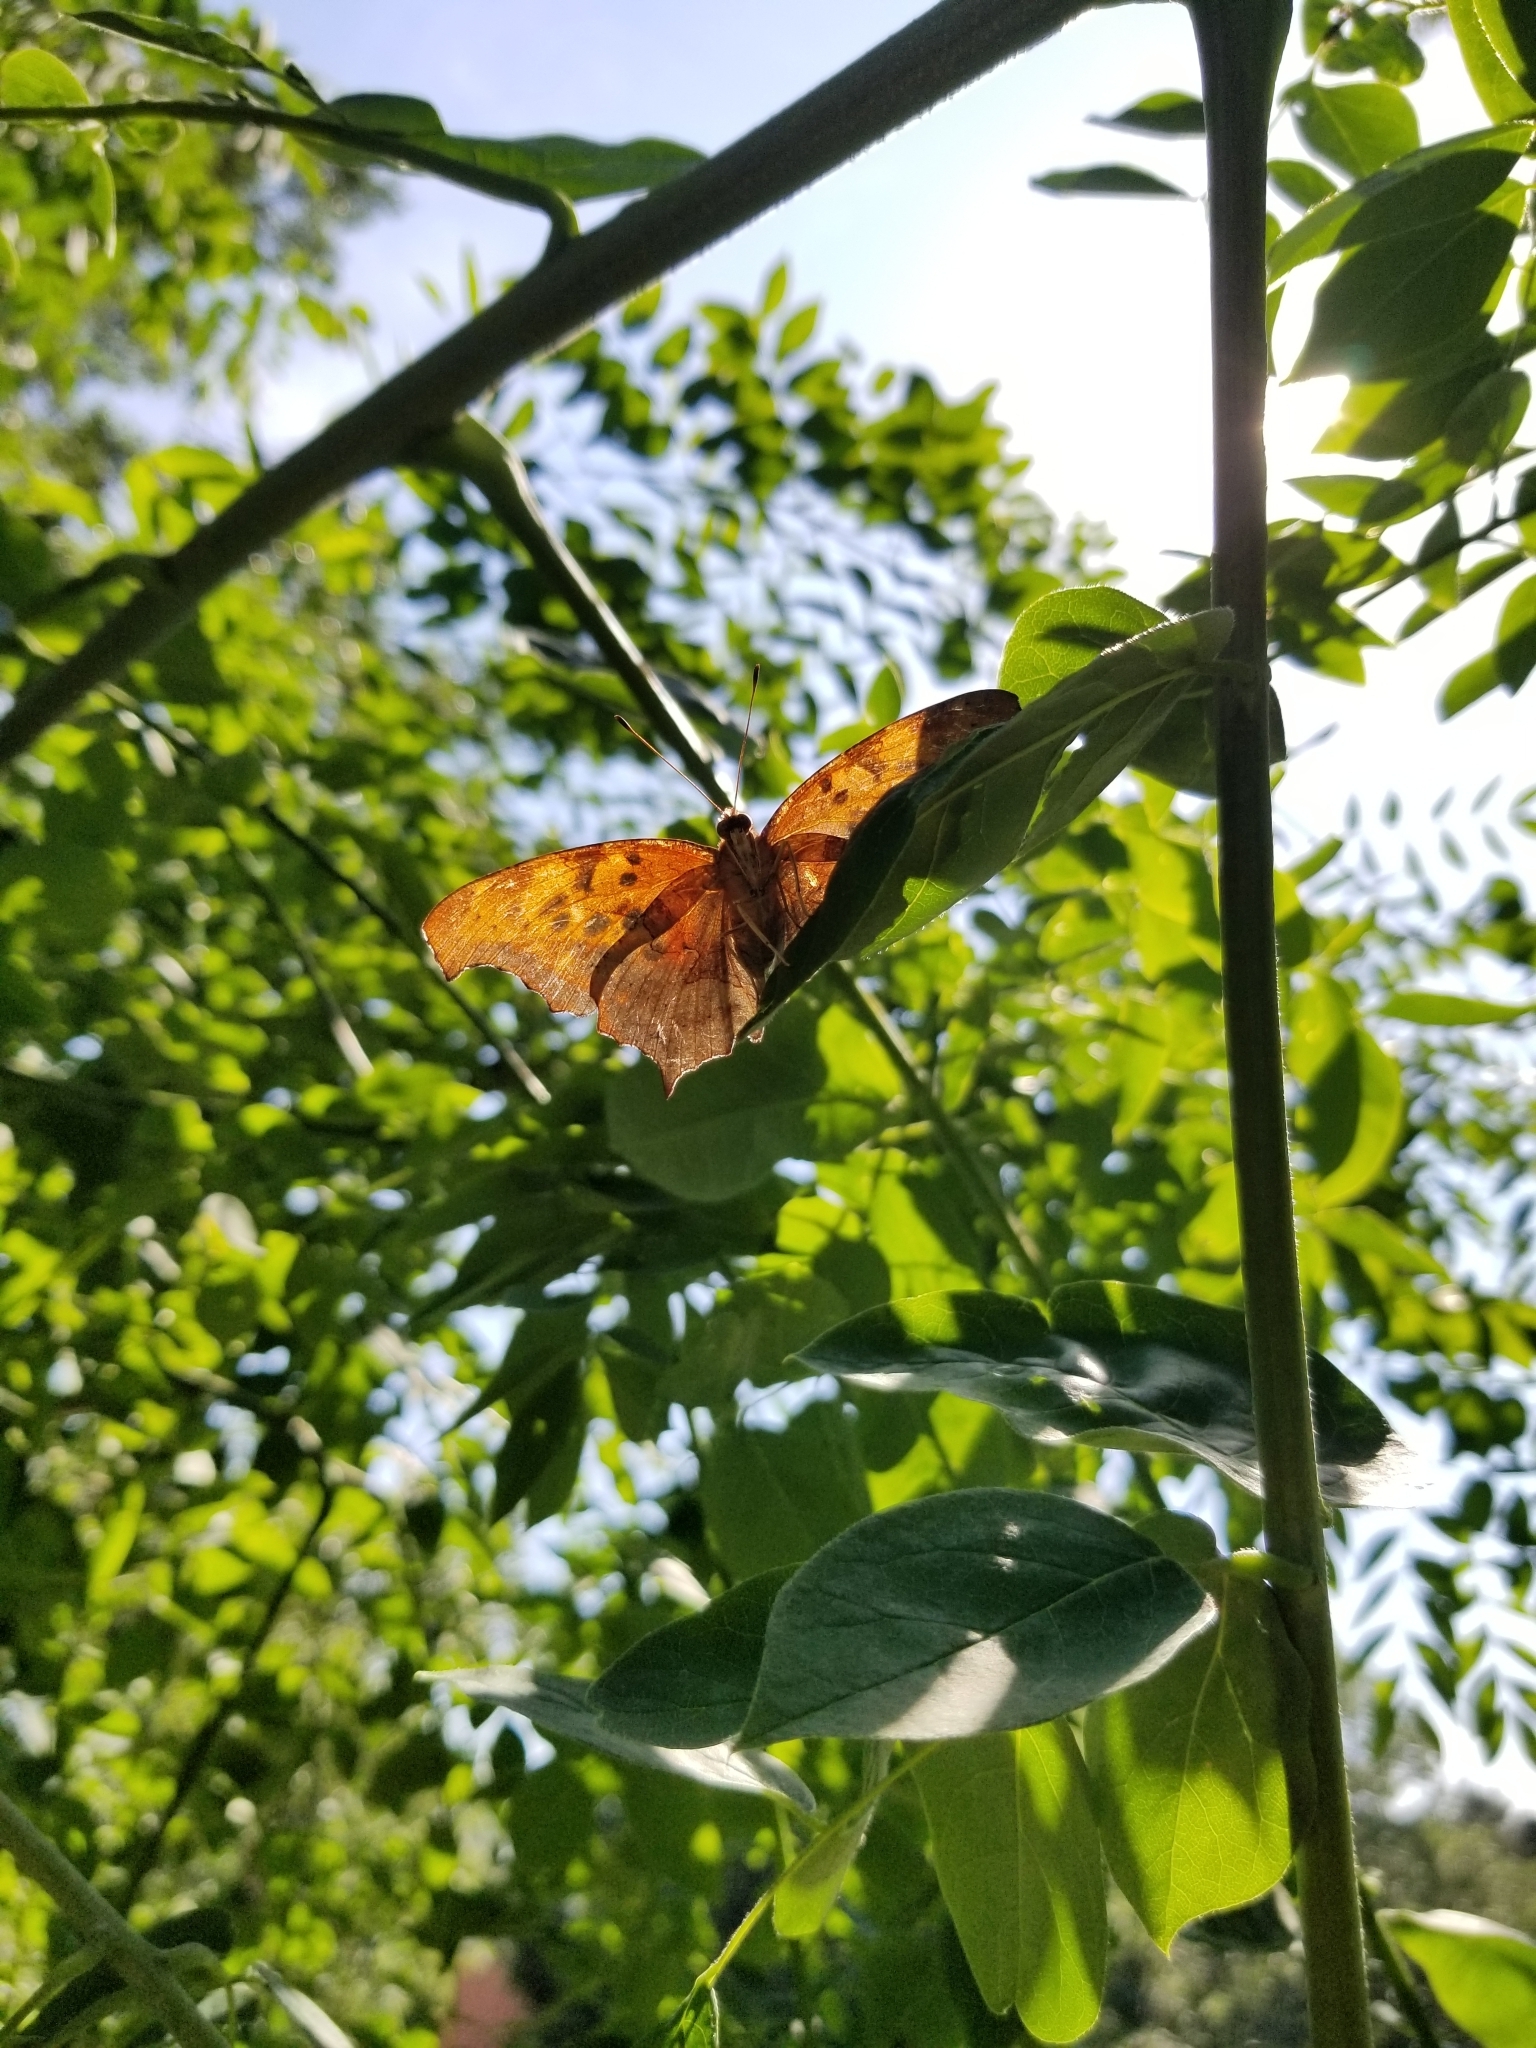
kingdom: Animalia
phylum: Arthropoda
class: Insecta
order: Lepidoptera
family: Nymphalidae
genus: Polygonia
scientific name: Polygonia interrogationis
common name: Question mark
